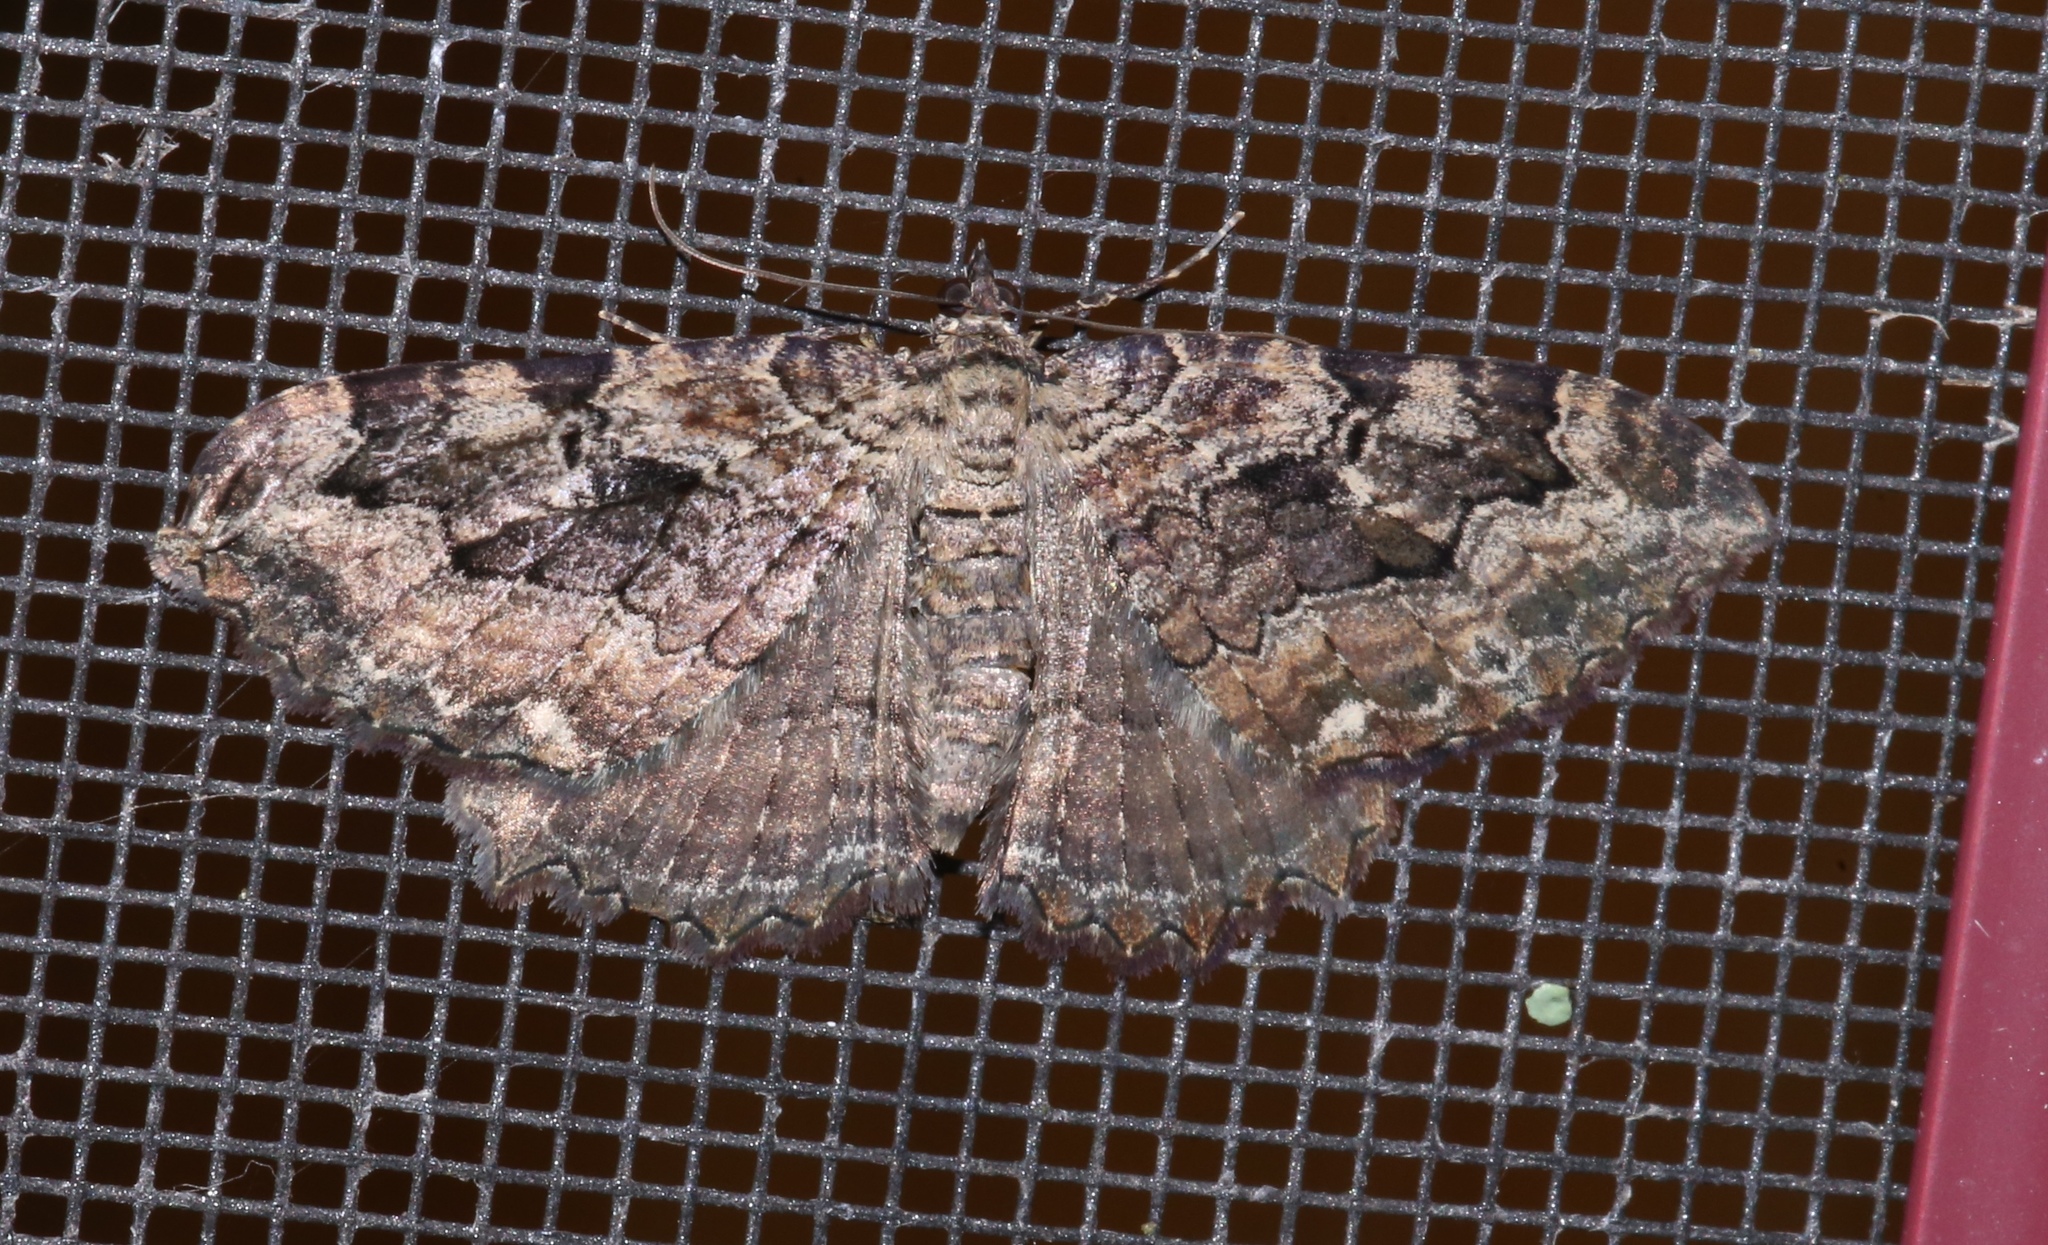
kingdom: Animalia
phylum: Arthropoda
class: Insecta
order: Lepidoptera
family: Geometridae
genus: Rheumaptera
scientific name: Rheumaptera
